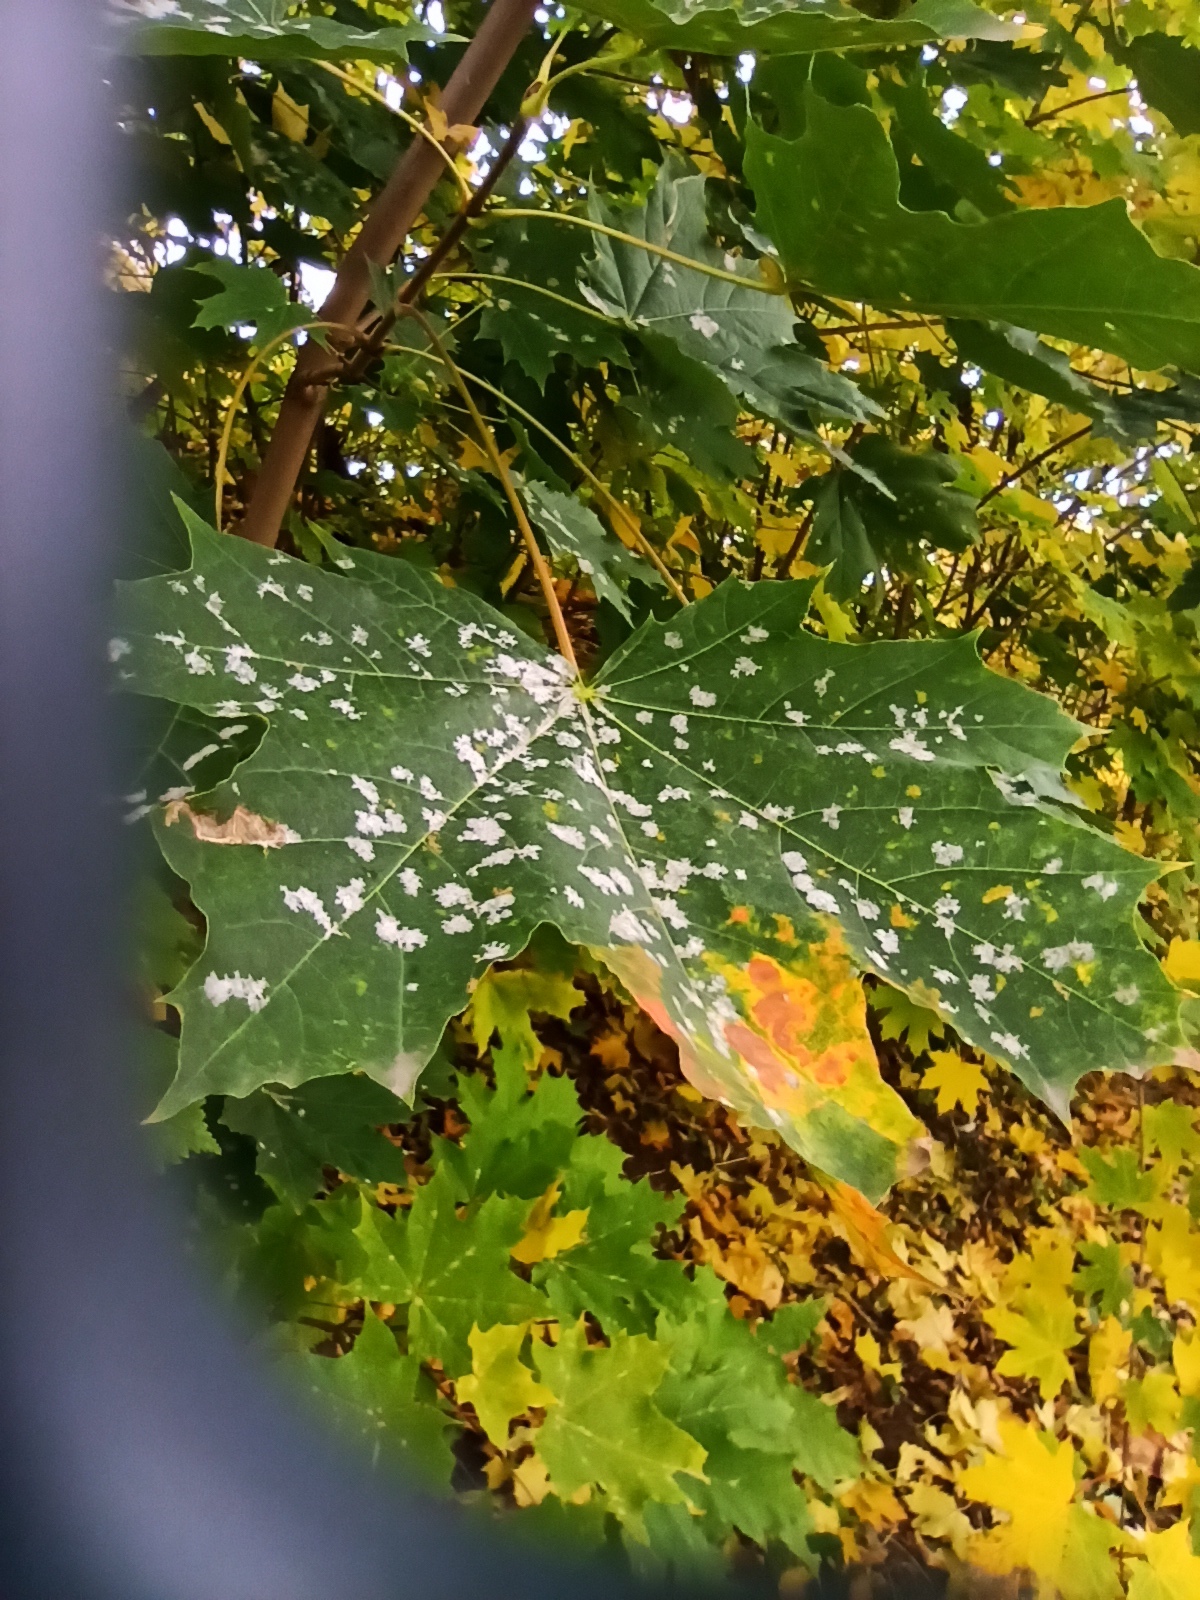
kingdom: Fungi
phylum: Ascomycota
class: Leotiomycetes
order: Helotiales
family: Erysiphaceae
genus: Sawadaea
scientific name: Sawadaea tulasnei
